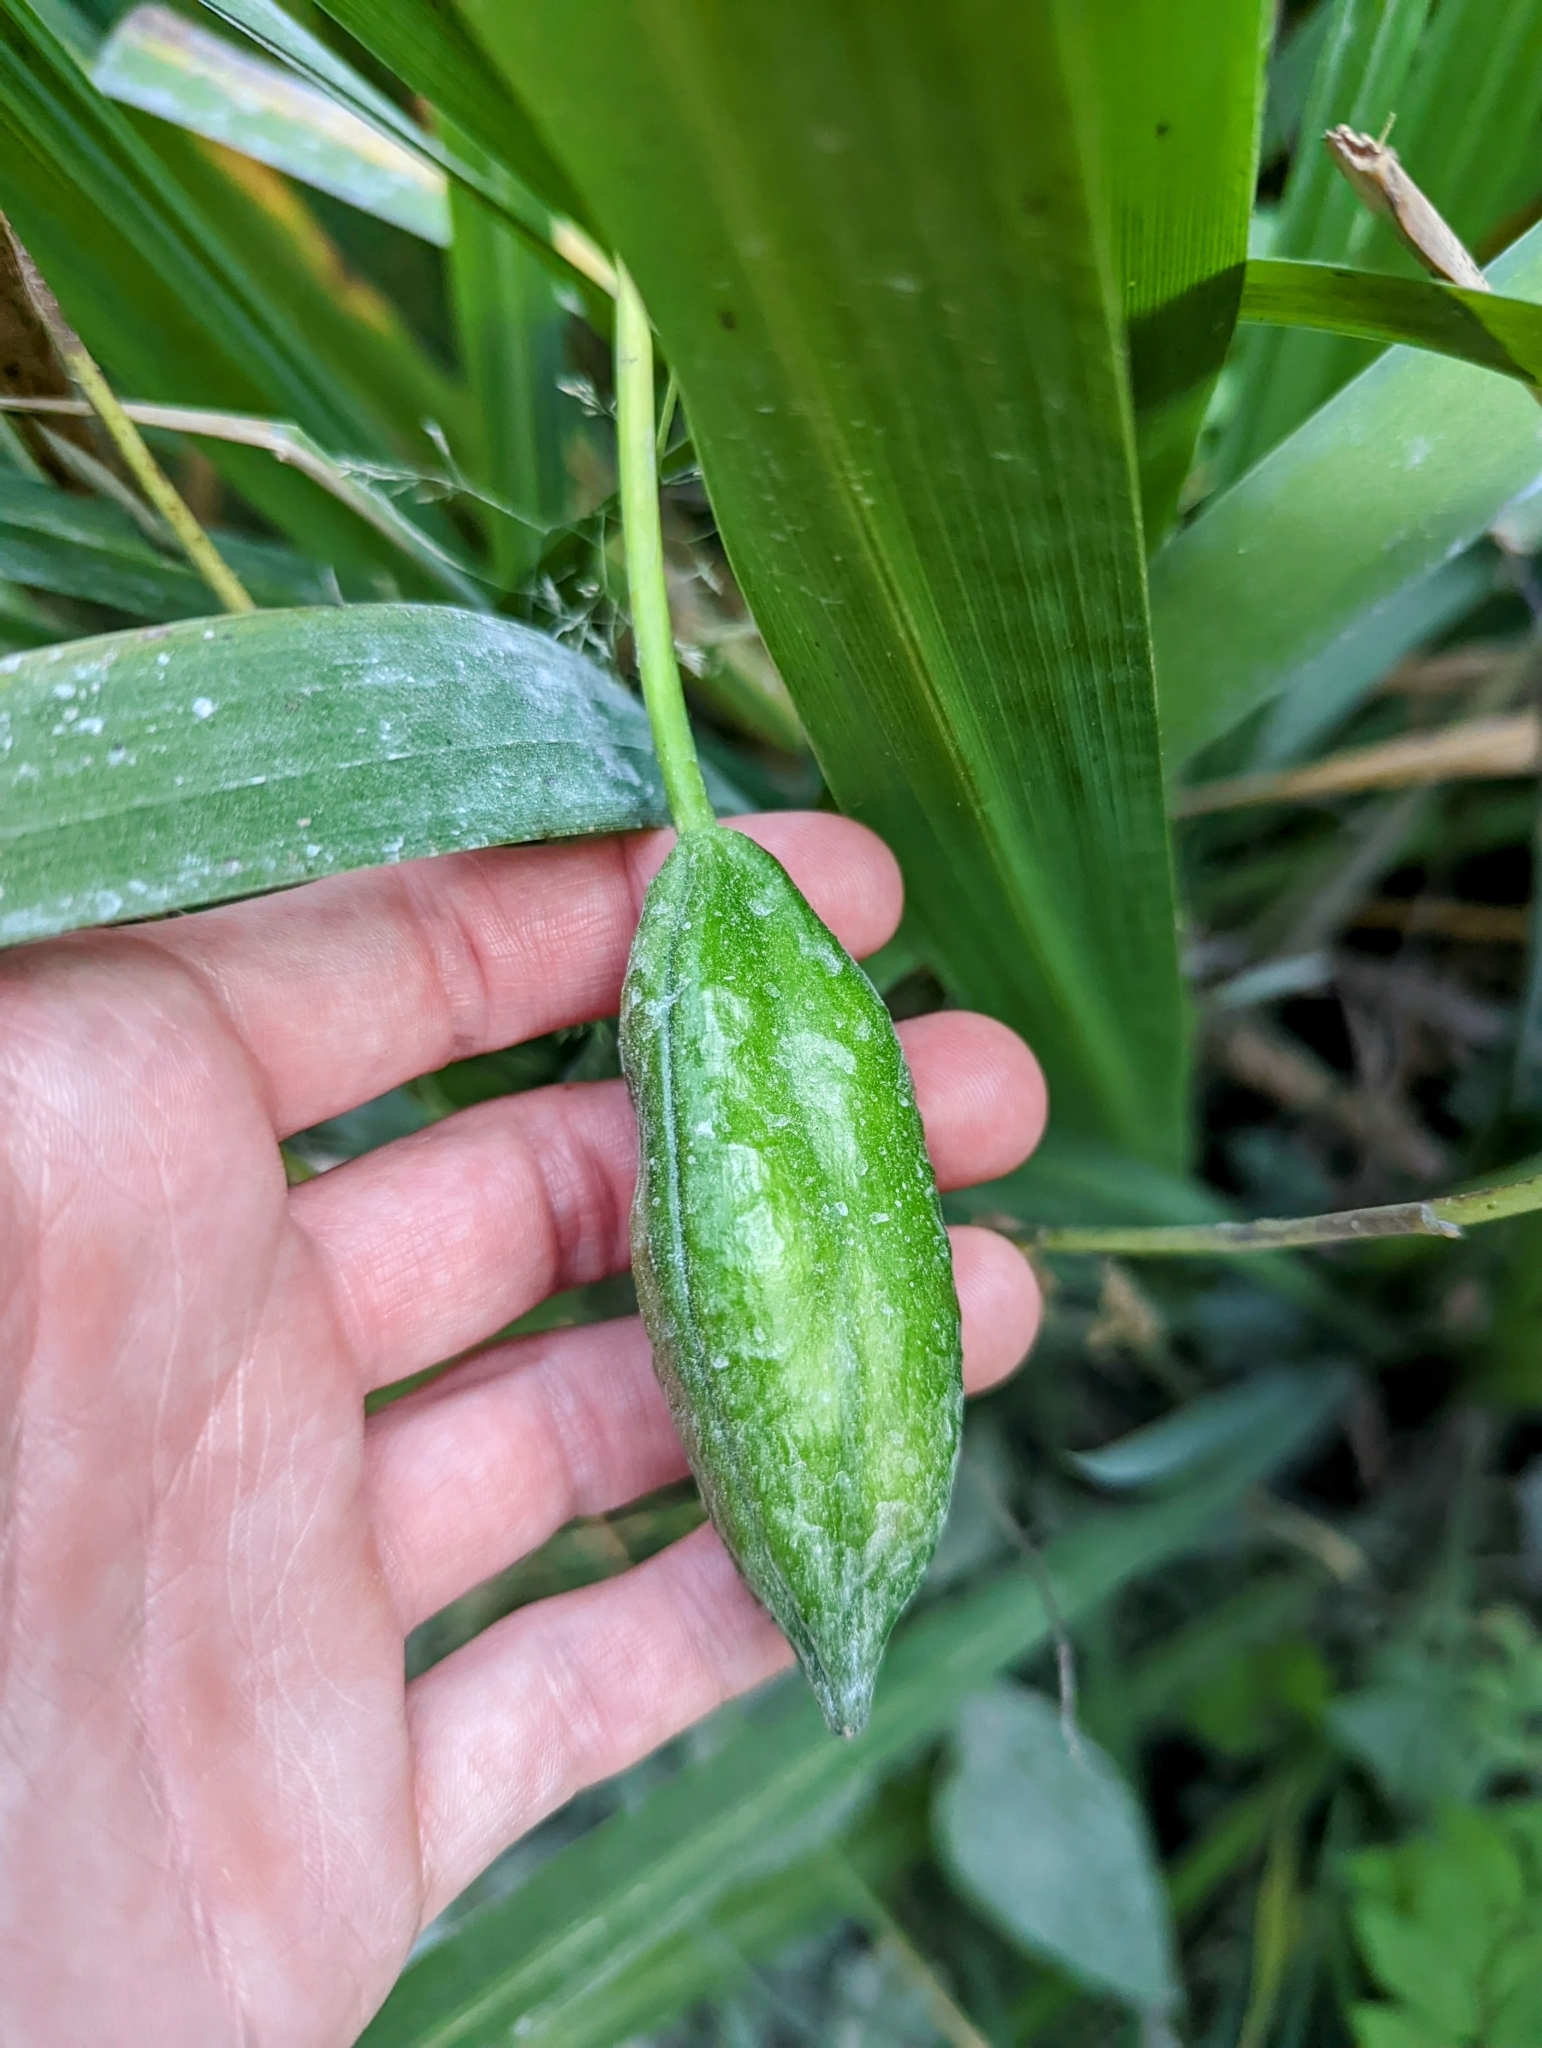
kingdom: Plantae
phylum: Tracheophyta
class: Liliopsida
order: Asparagales
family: Iridaceae
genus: Iris
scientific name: Iris pseudacorus
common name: Yellow flag
